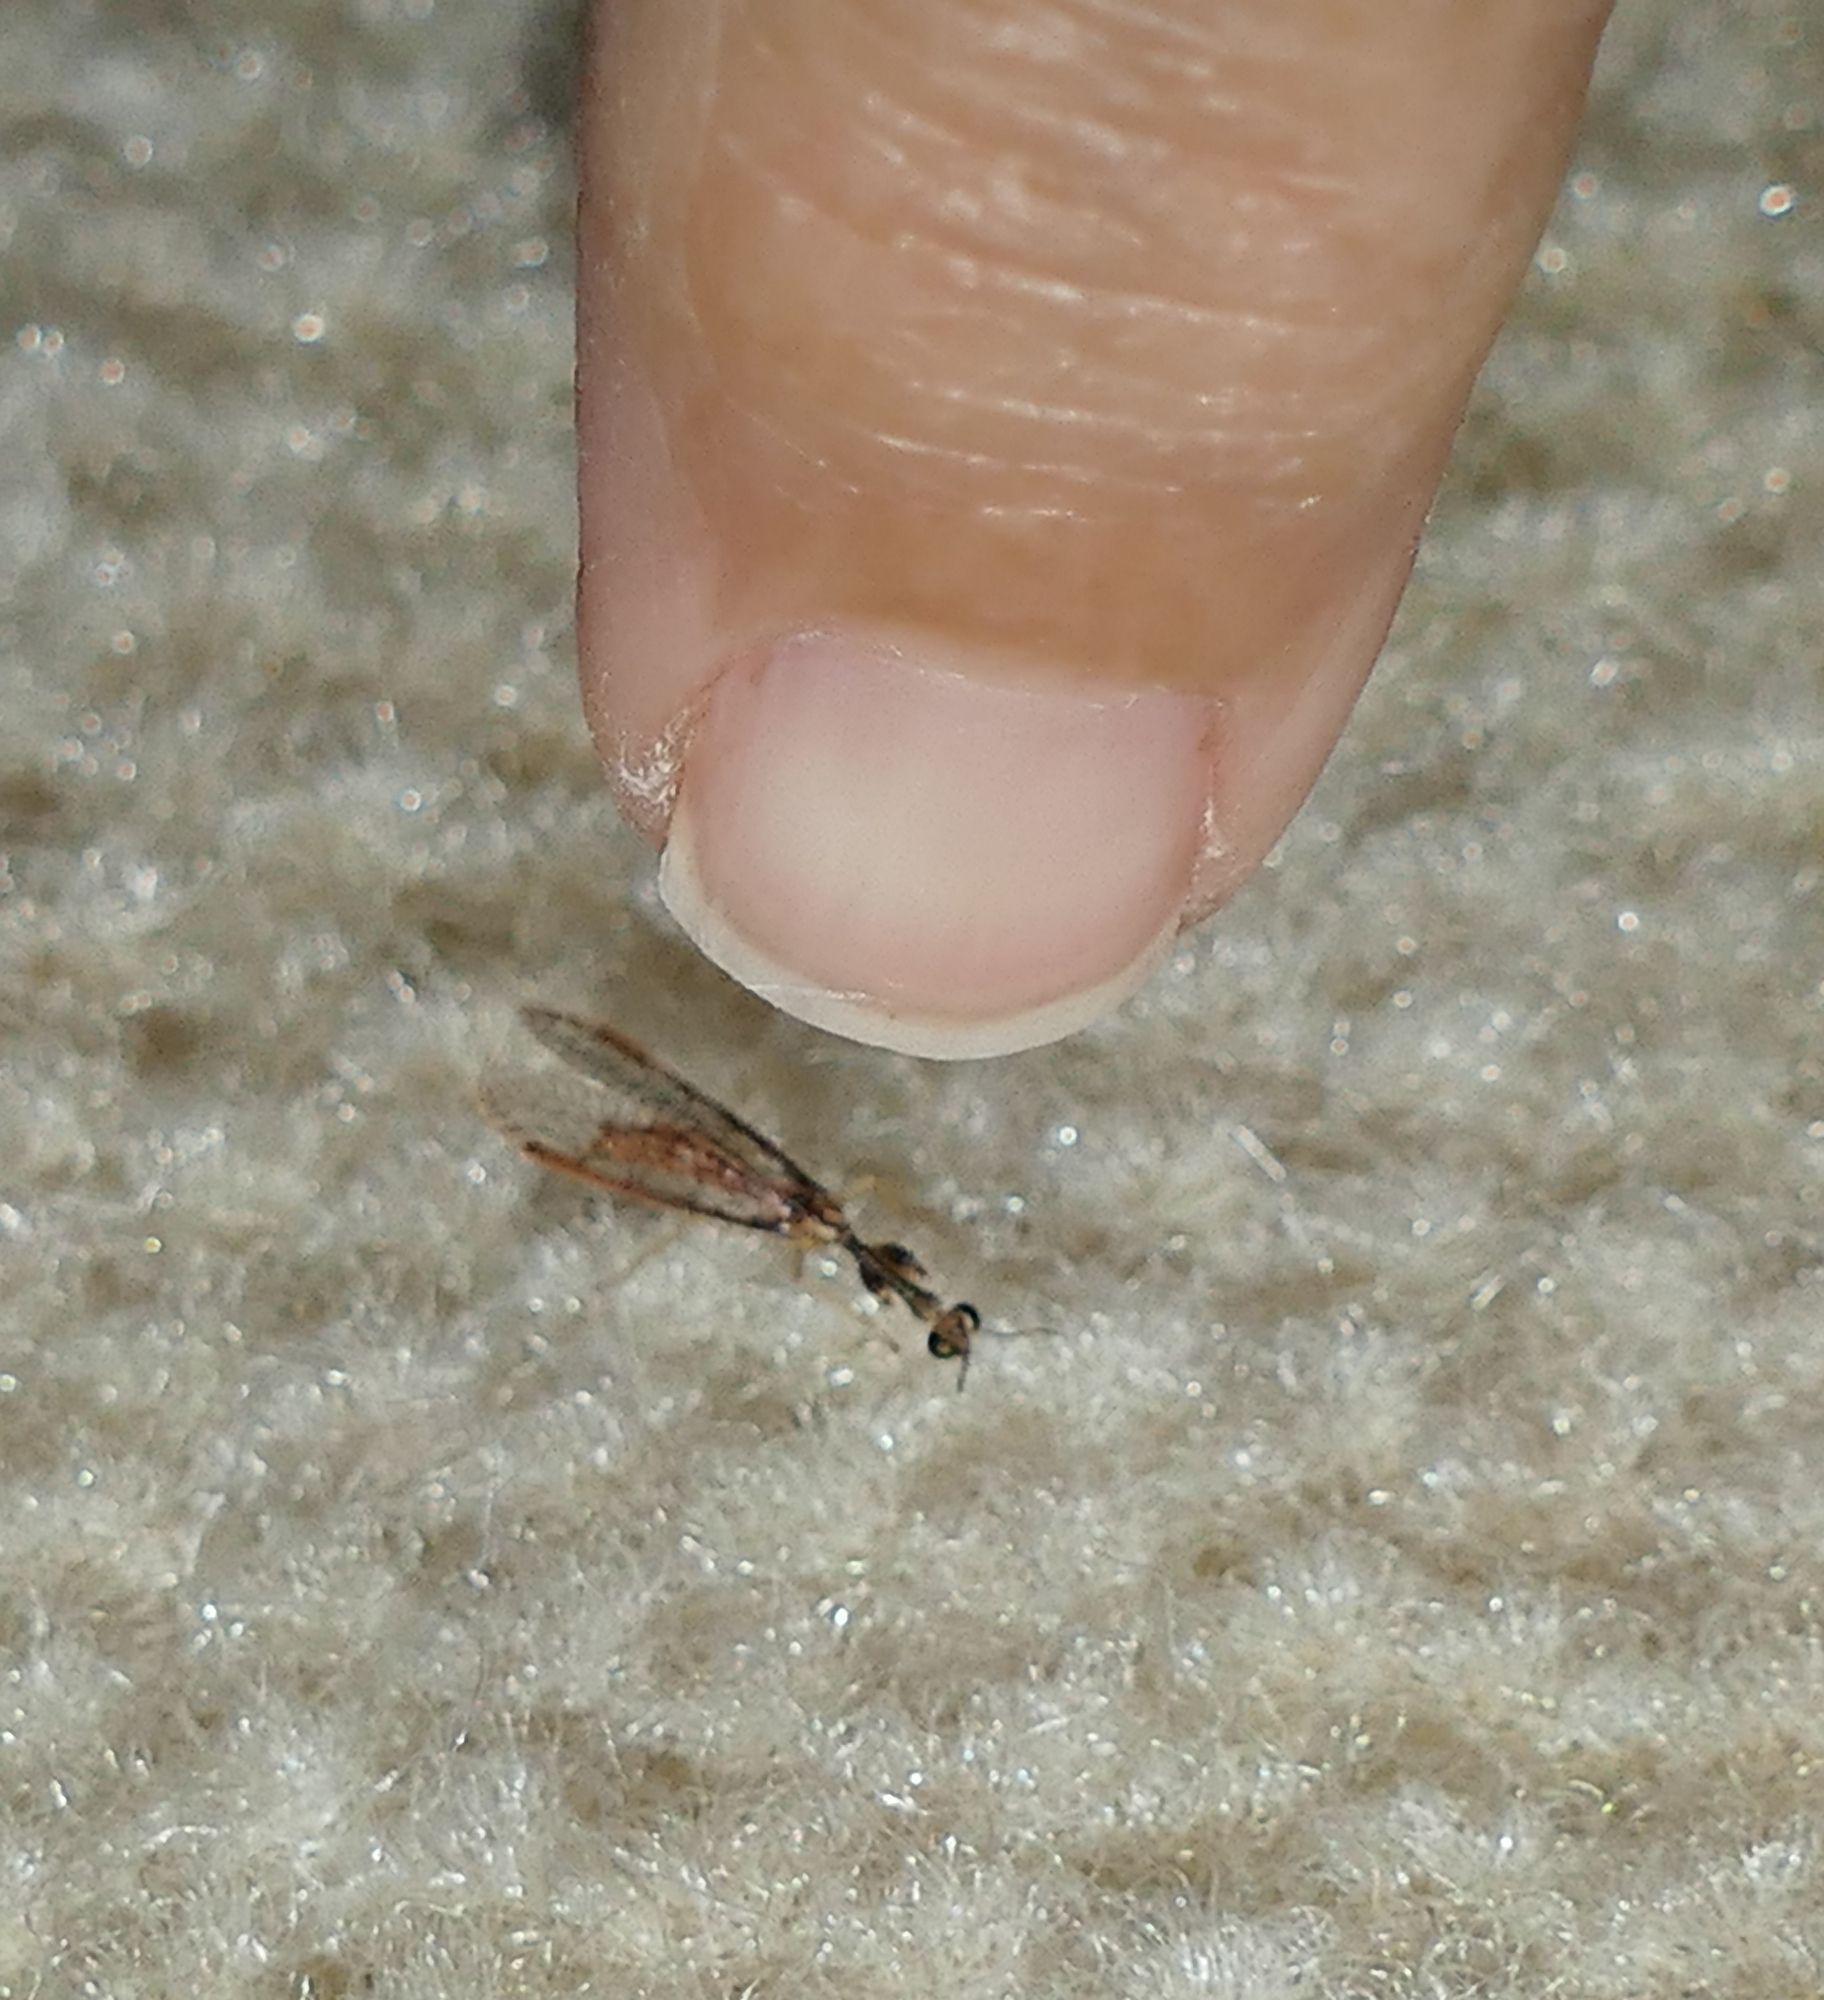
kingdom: Animalia
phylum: Arthropoda
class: Insecta
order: Neuroptera
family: Mantispidae
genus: Leptomantispa
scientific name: Leptomantispa pulchella
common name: Stevens's mantidfly
